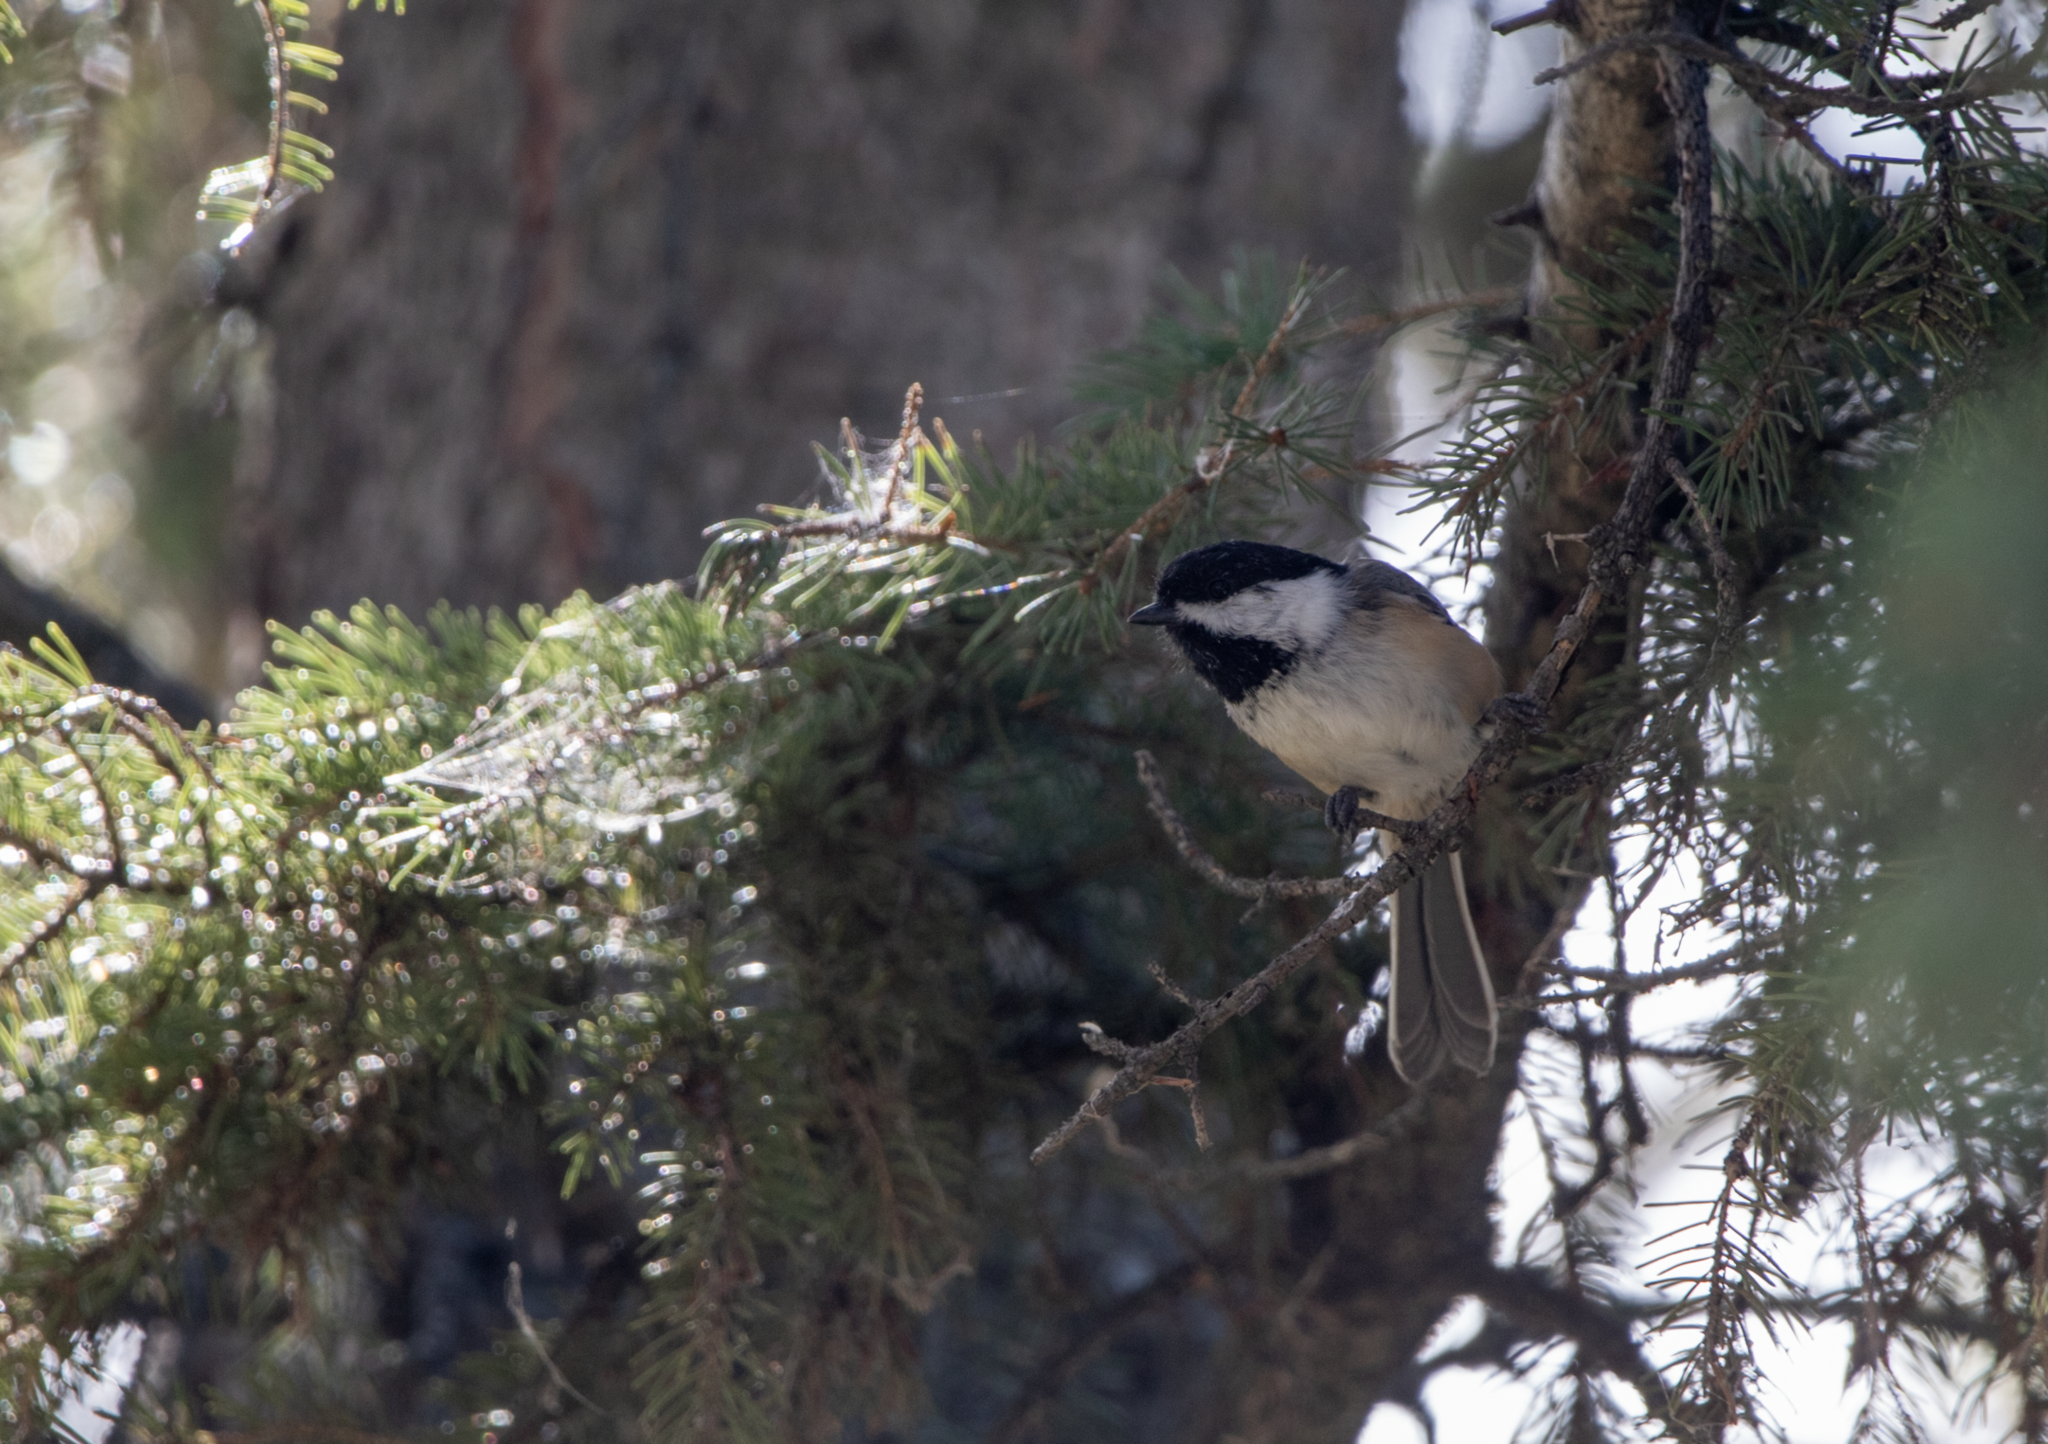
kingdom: Animalia
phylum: Chordata
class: Aves
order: Passeriformes
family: Paridae
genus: Poecile
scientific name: Poecile atricapillus
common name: Black-capped chickadee
